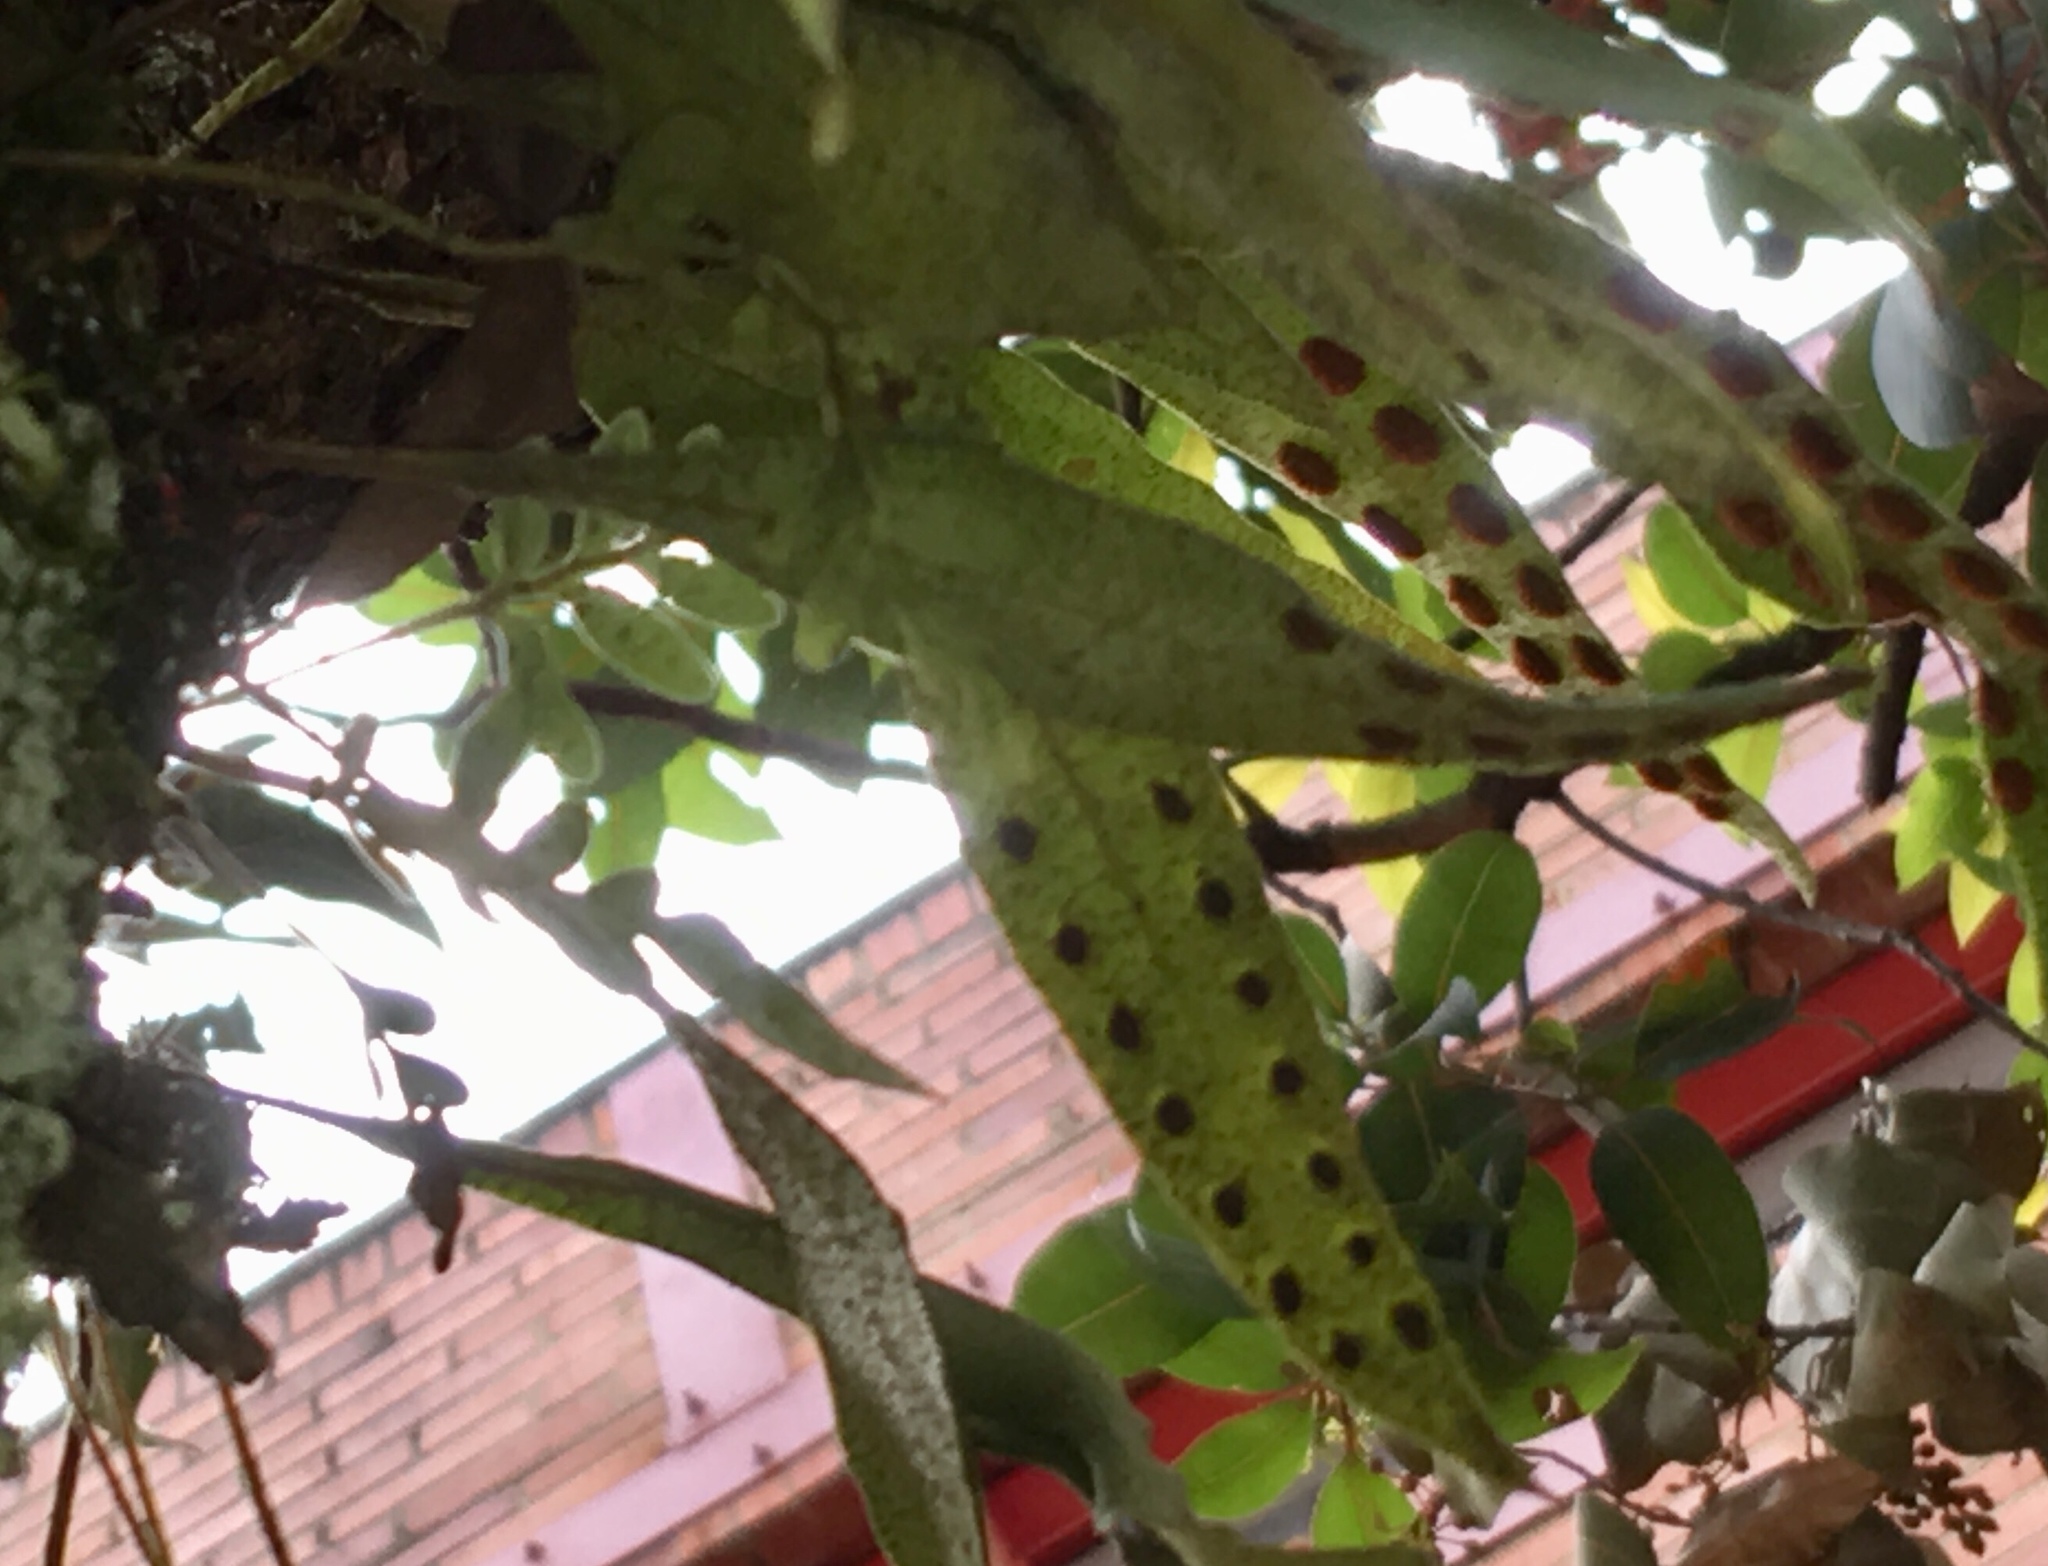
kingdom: Plantae
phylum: Tracheophyta
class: Polypodiopsida
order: Polypodiales
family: Polypodiaceae
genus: Pleopeltis
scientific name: Pleopeltis macrocarpa
